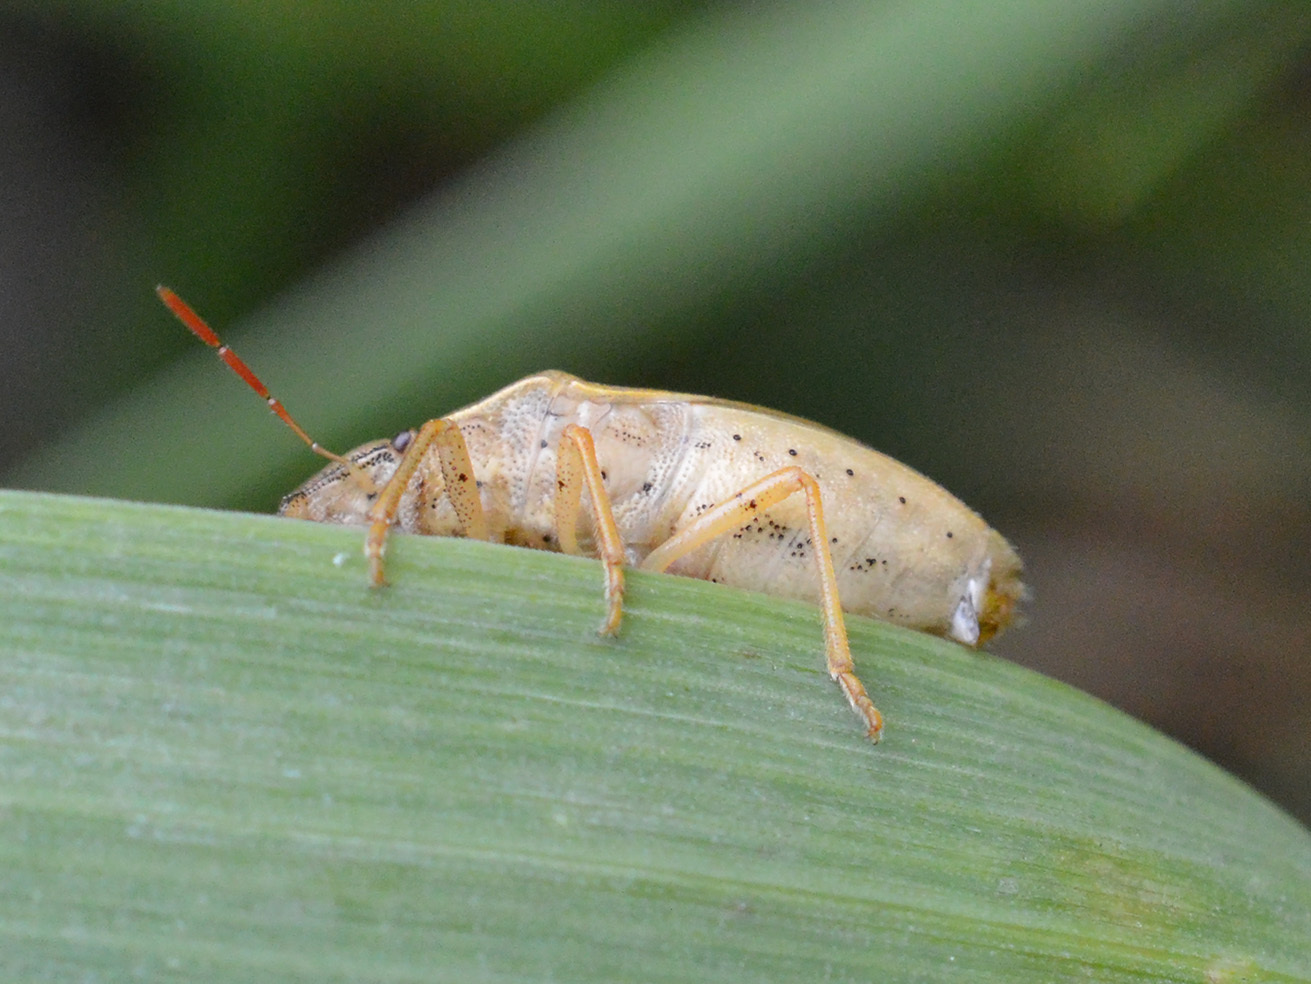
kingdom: Animalia
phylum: Arthropoda
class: Insecta
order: Hemiptera
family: Pentatomidae
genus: Aelia
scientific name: Aelia acuminata
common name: Bishop's mitre
